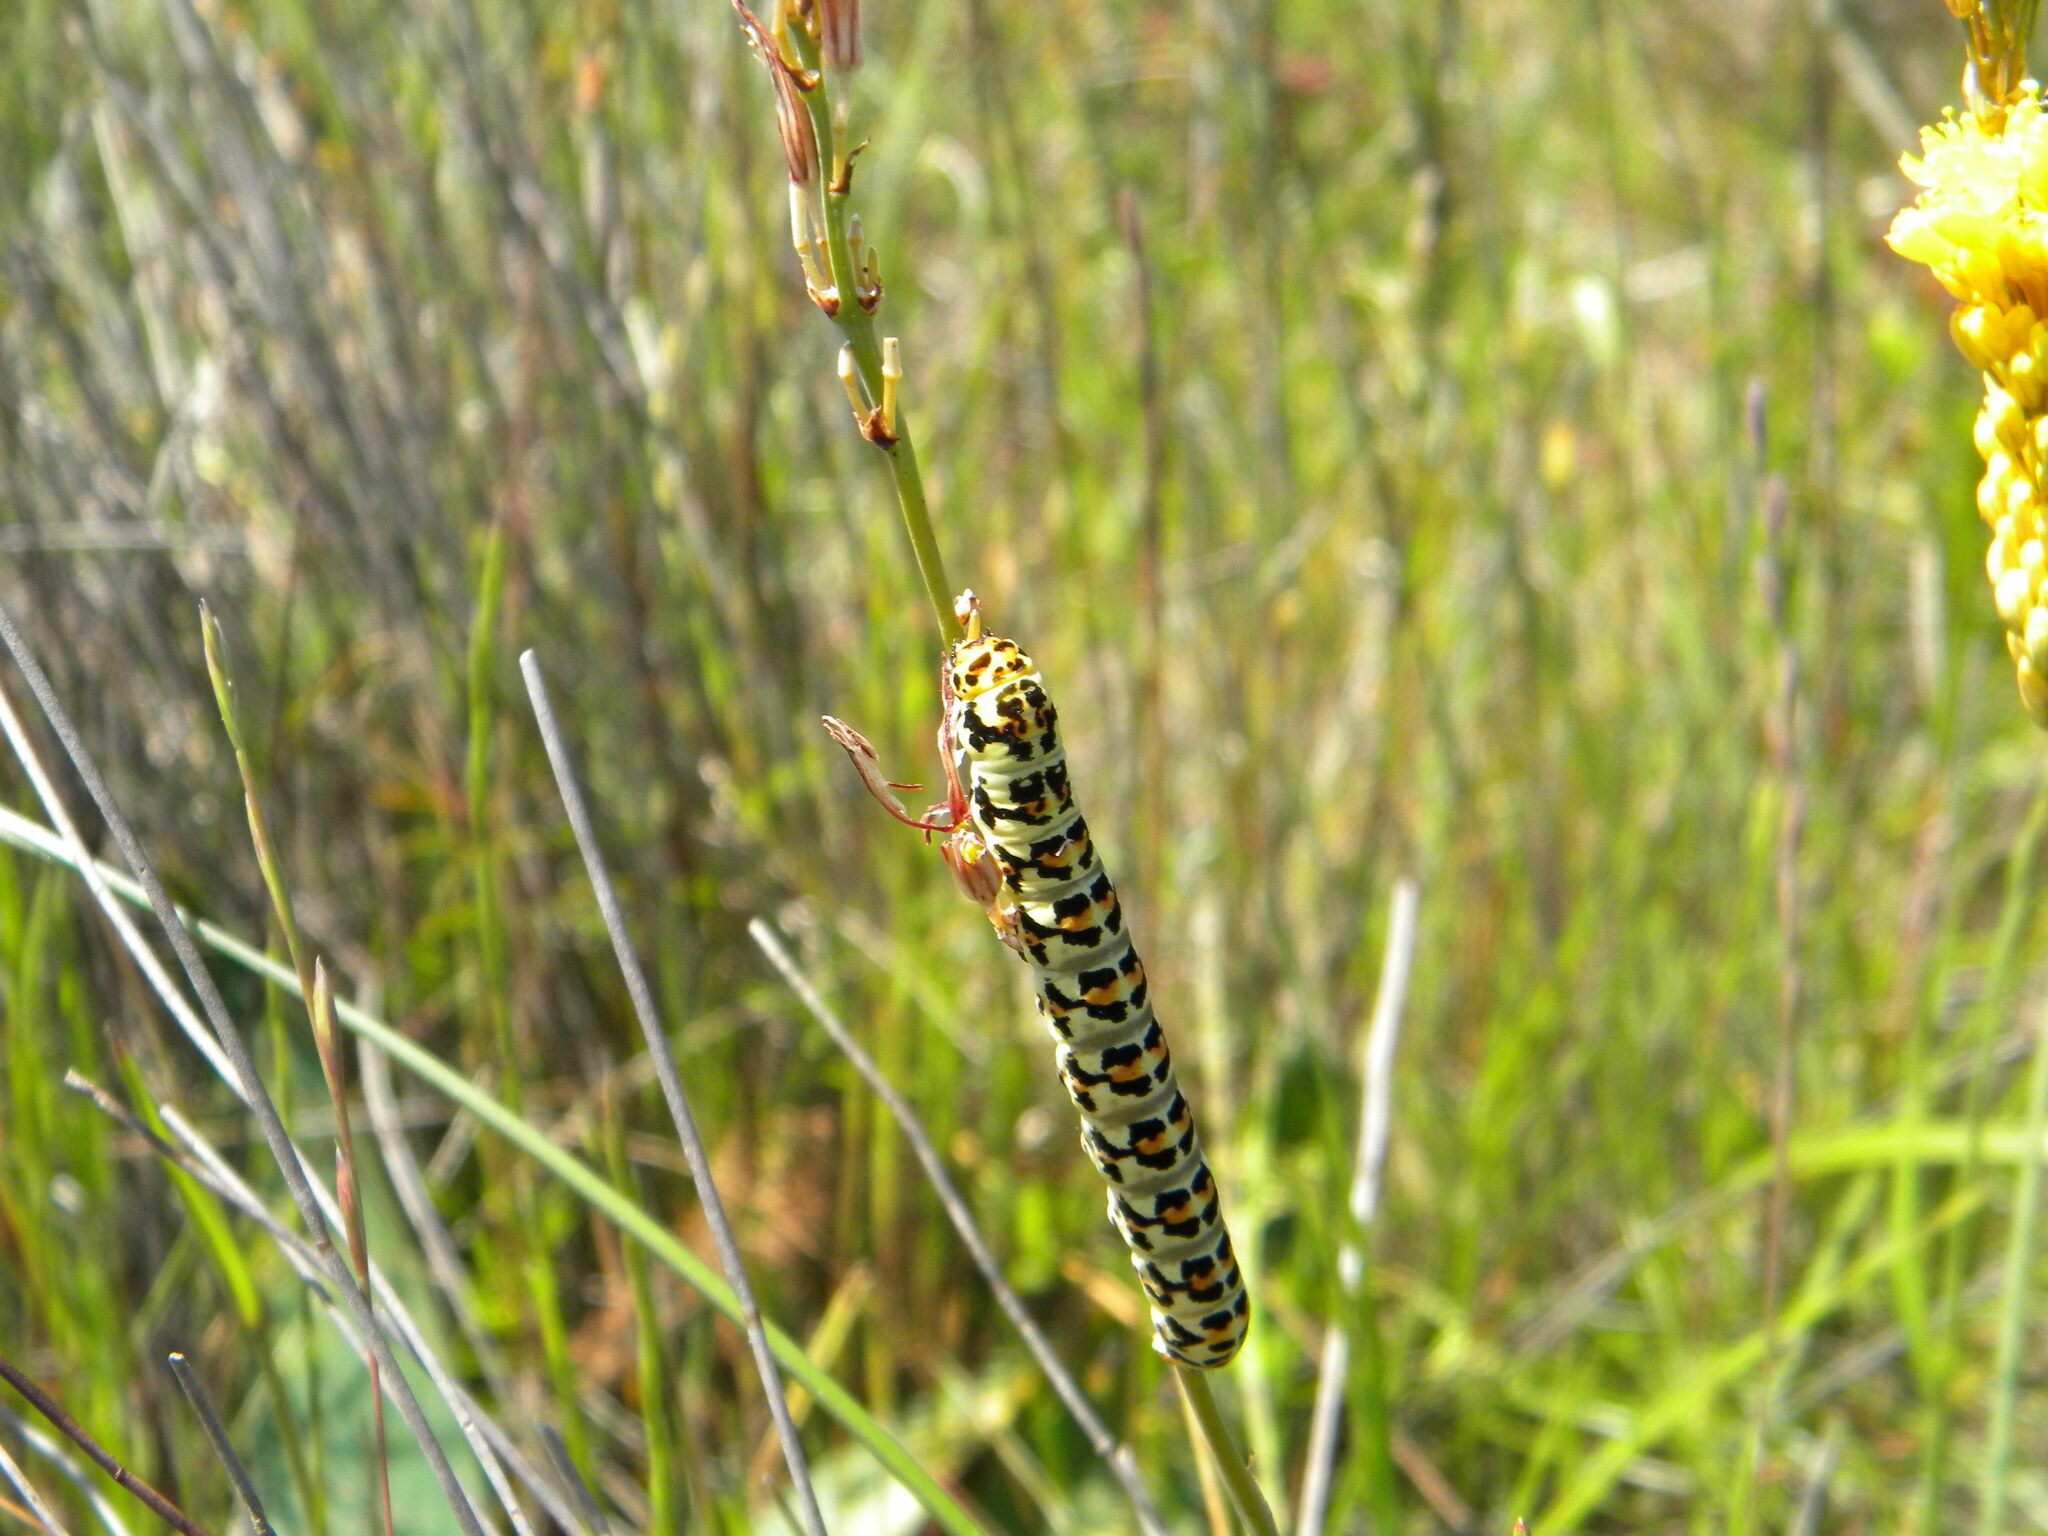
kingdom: Animalia
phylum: Arthropoda
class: Insecta
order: Lepidoptera
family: Noctuidae
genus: Diaphone
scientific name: Diaphone eumela
